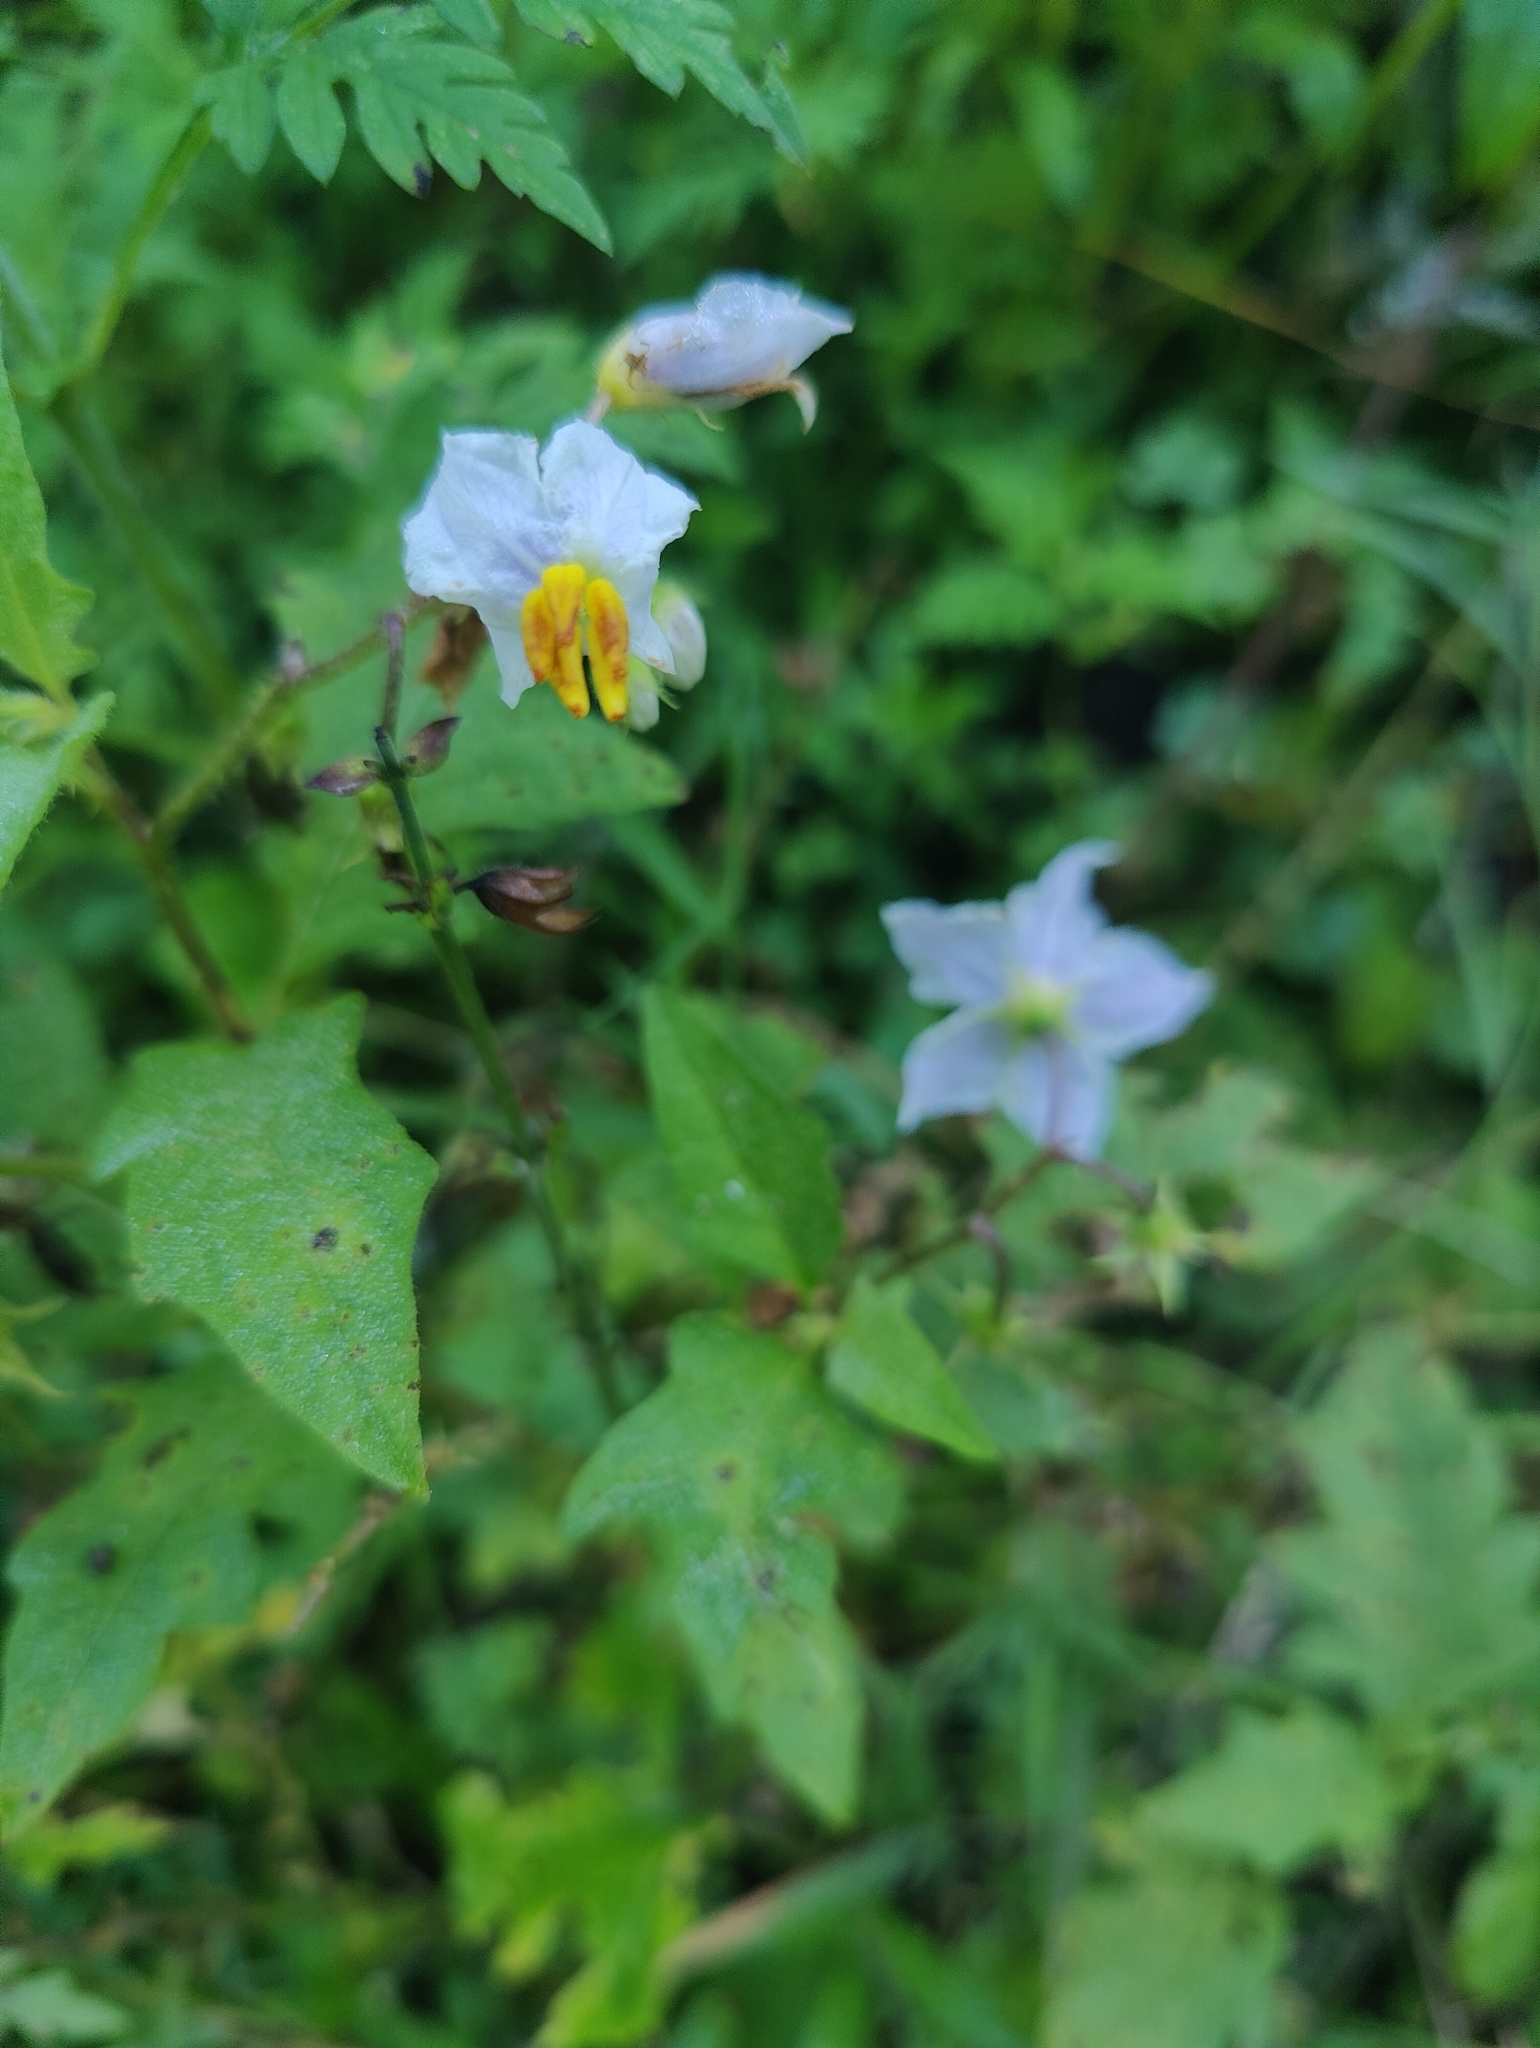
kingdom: Plantae
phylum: Tracheophyta
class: Magnoliopsida
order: Solanales
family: Solanaceae
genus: Solanum
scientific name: Solanum carolinense
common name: Horse-nettle
